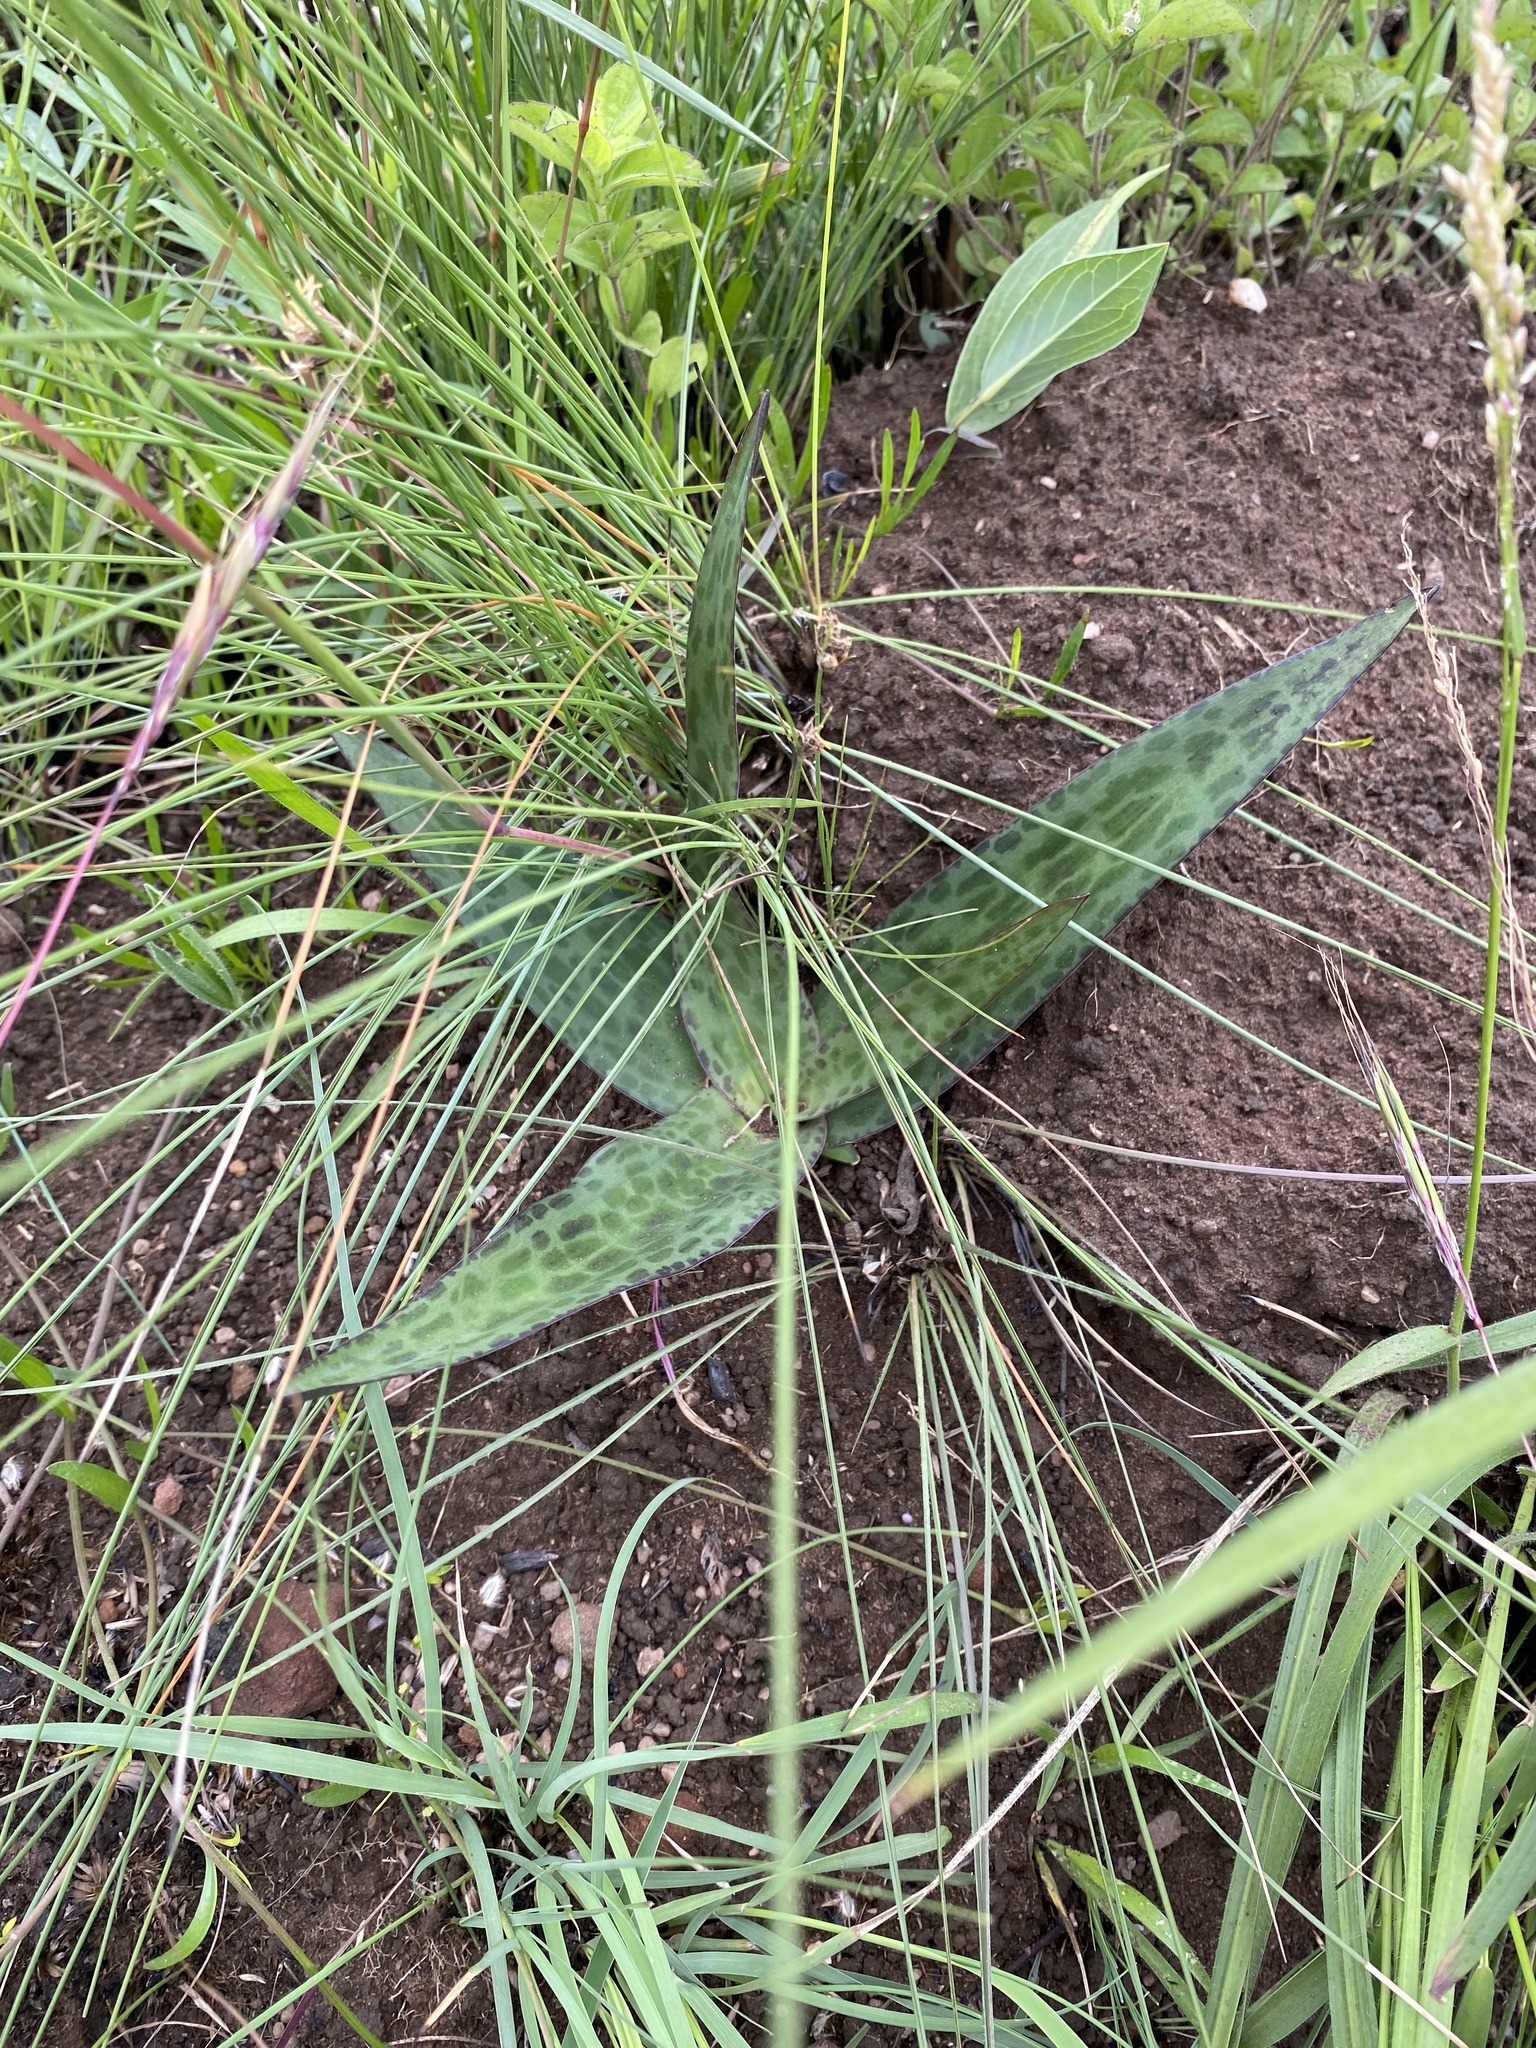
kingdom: Plantae
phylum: Tracheophyta
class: Liliopsida
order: Asparagales
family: Asparagaceae
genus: Ledebouria
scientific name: Ledebouria revoluta
